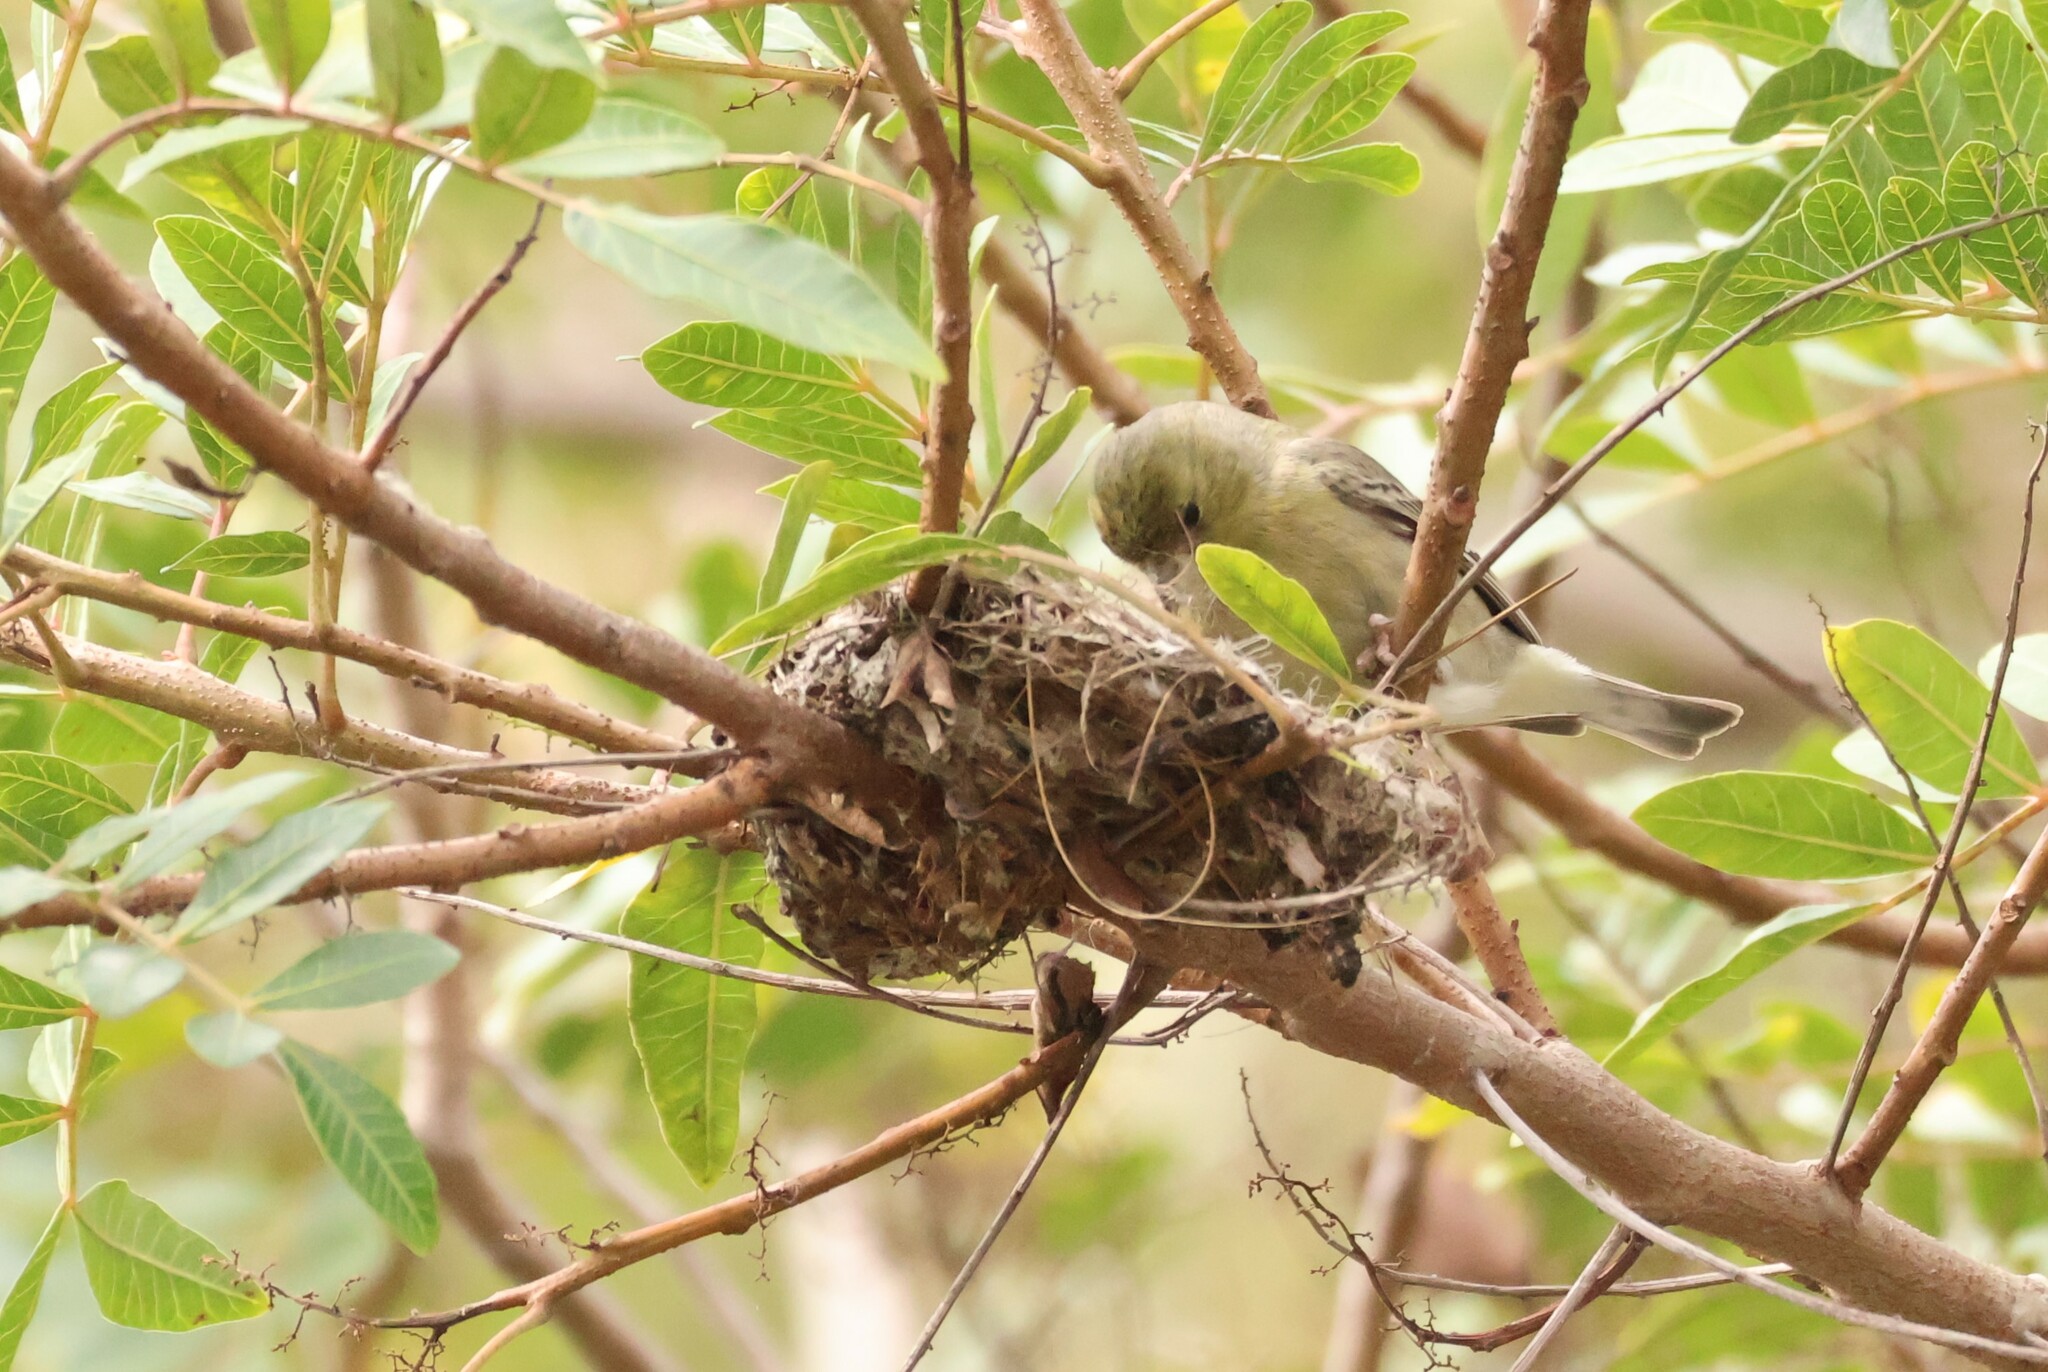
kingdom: Animalia
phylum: Chordata
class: Aves
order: Passeriformes
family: Fringillidae
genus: Spinus
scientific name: Spinus psaltria
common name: Lesser goldfinch
